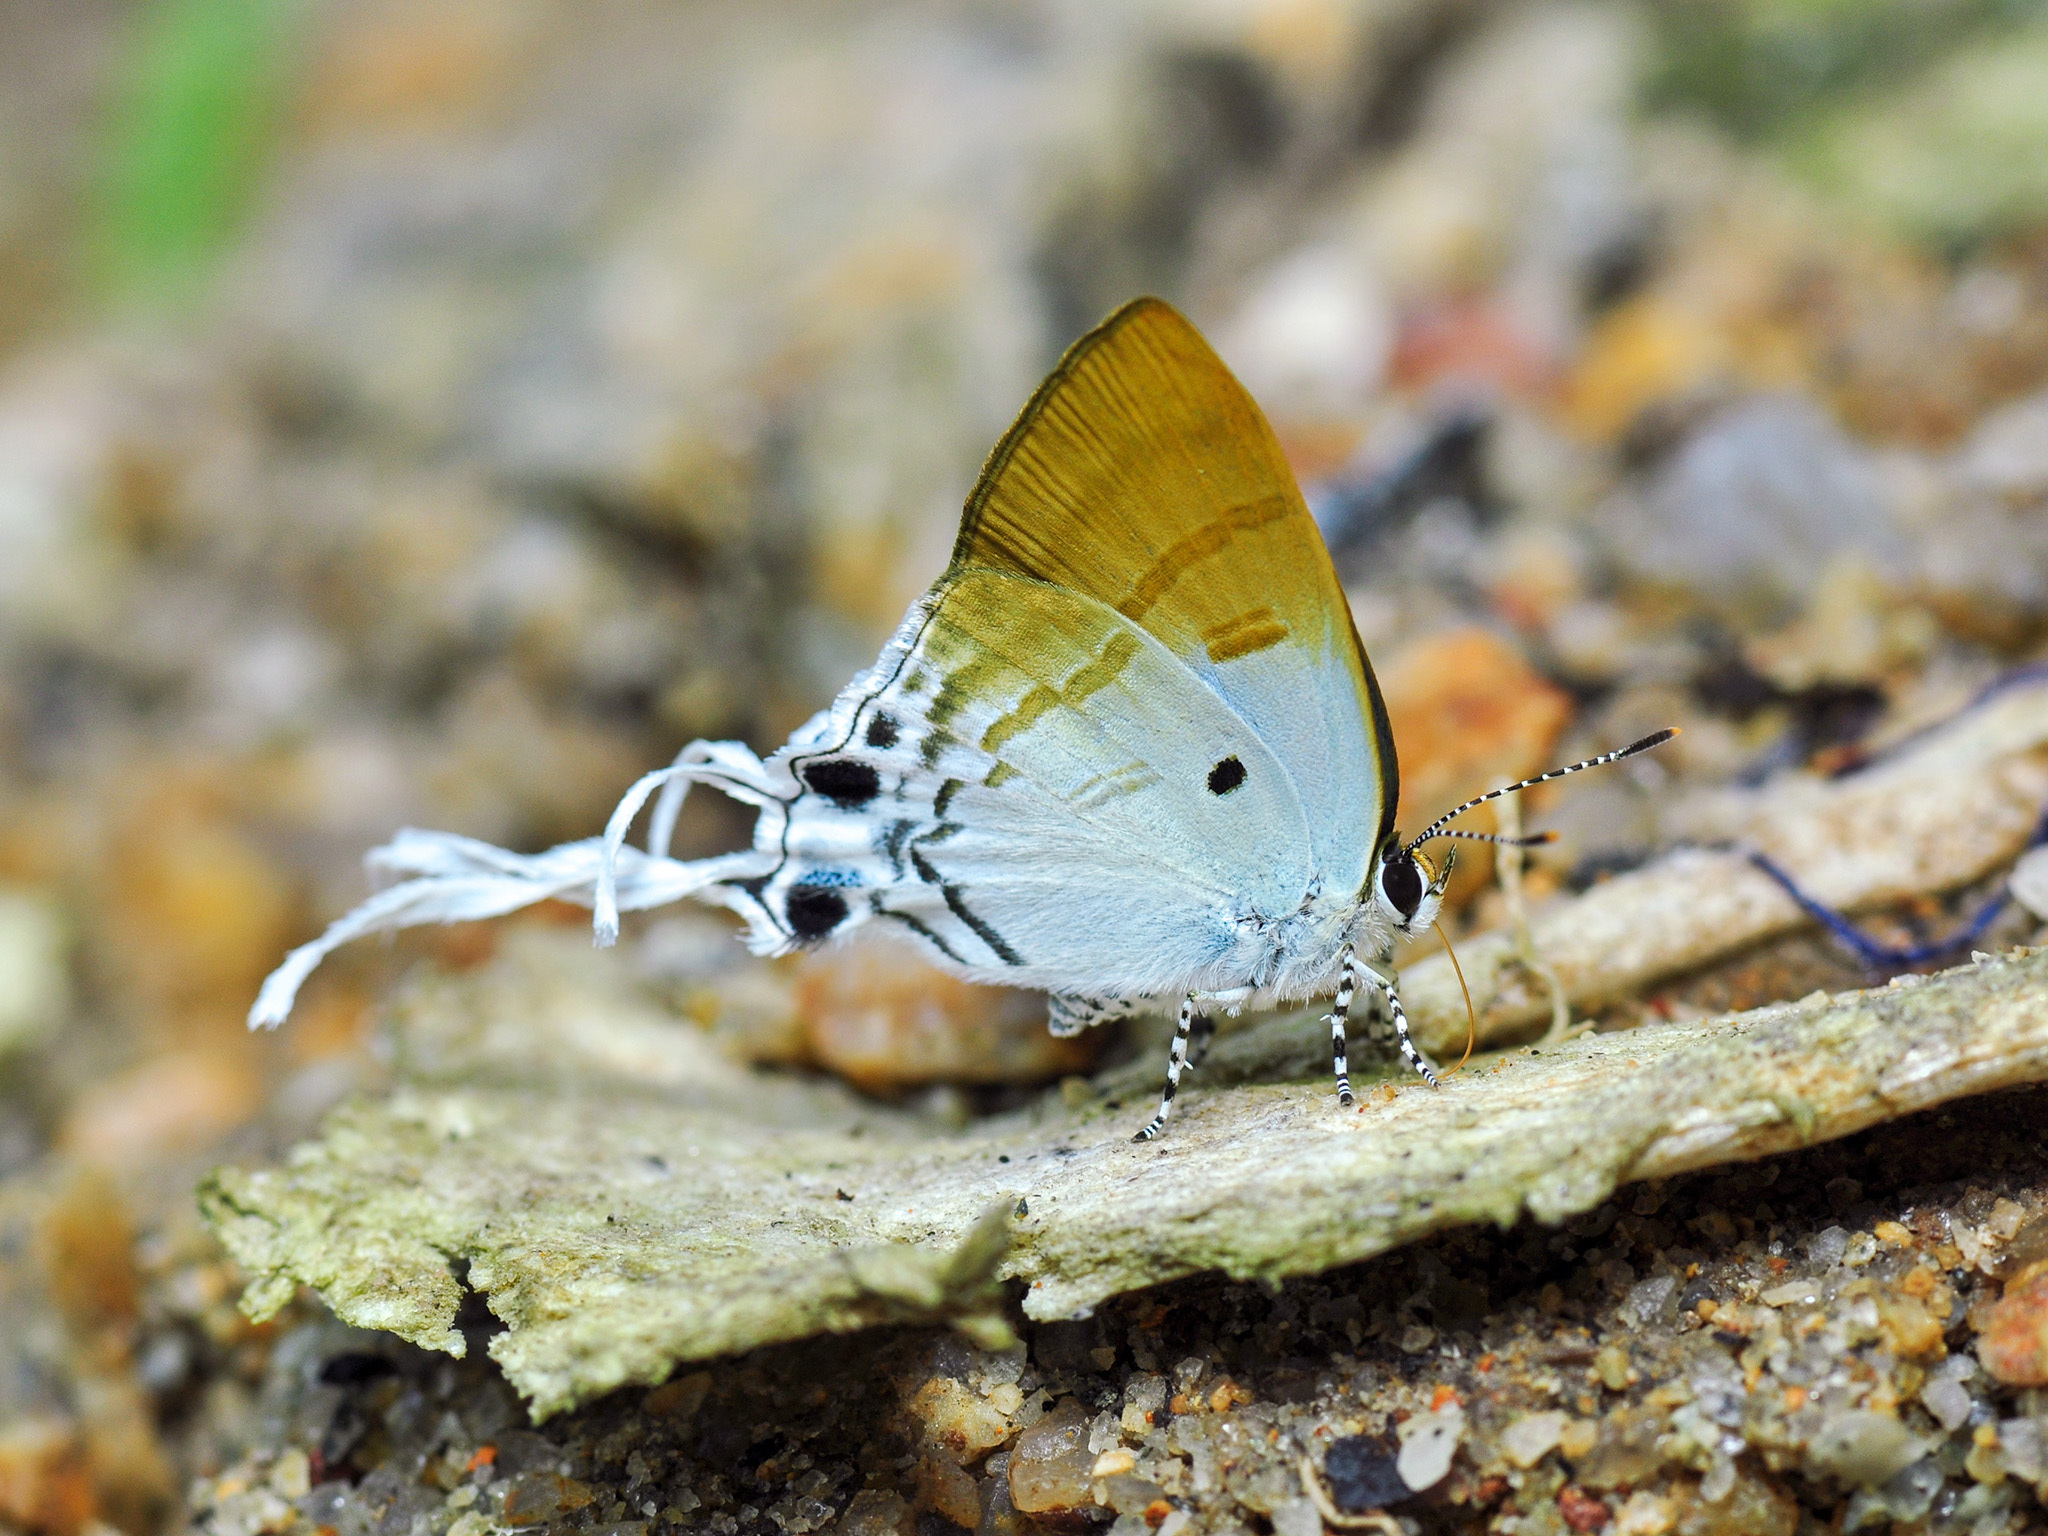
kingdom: Animalia
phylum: Arthropoda
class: Insecta
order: Lepidoptera
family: Lycaenidae
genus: Zeltus
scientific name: Zeltus amasa
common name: Fluffy tit
